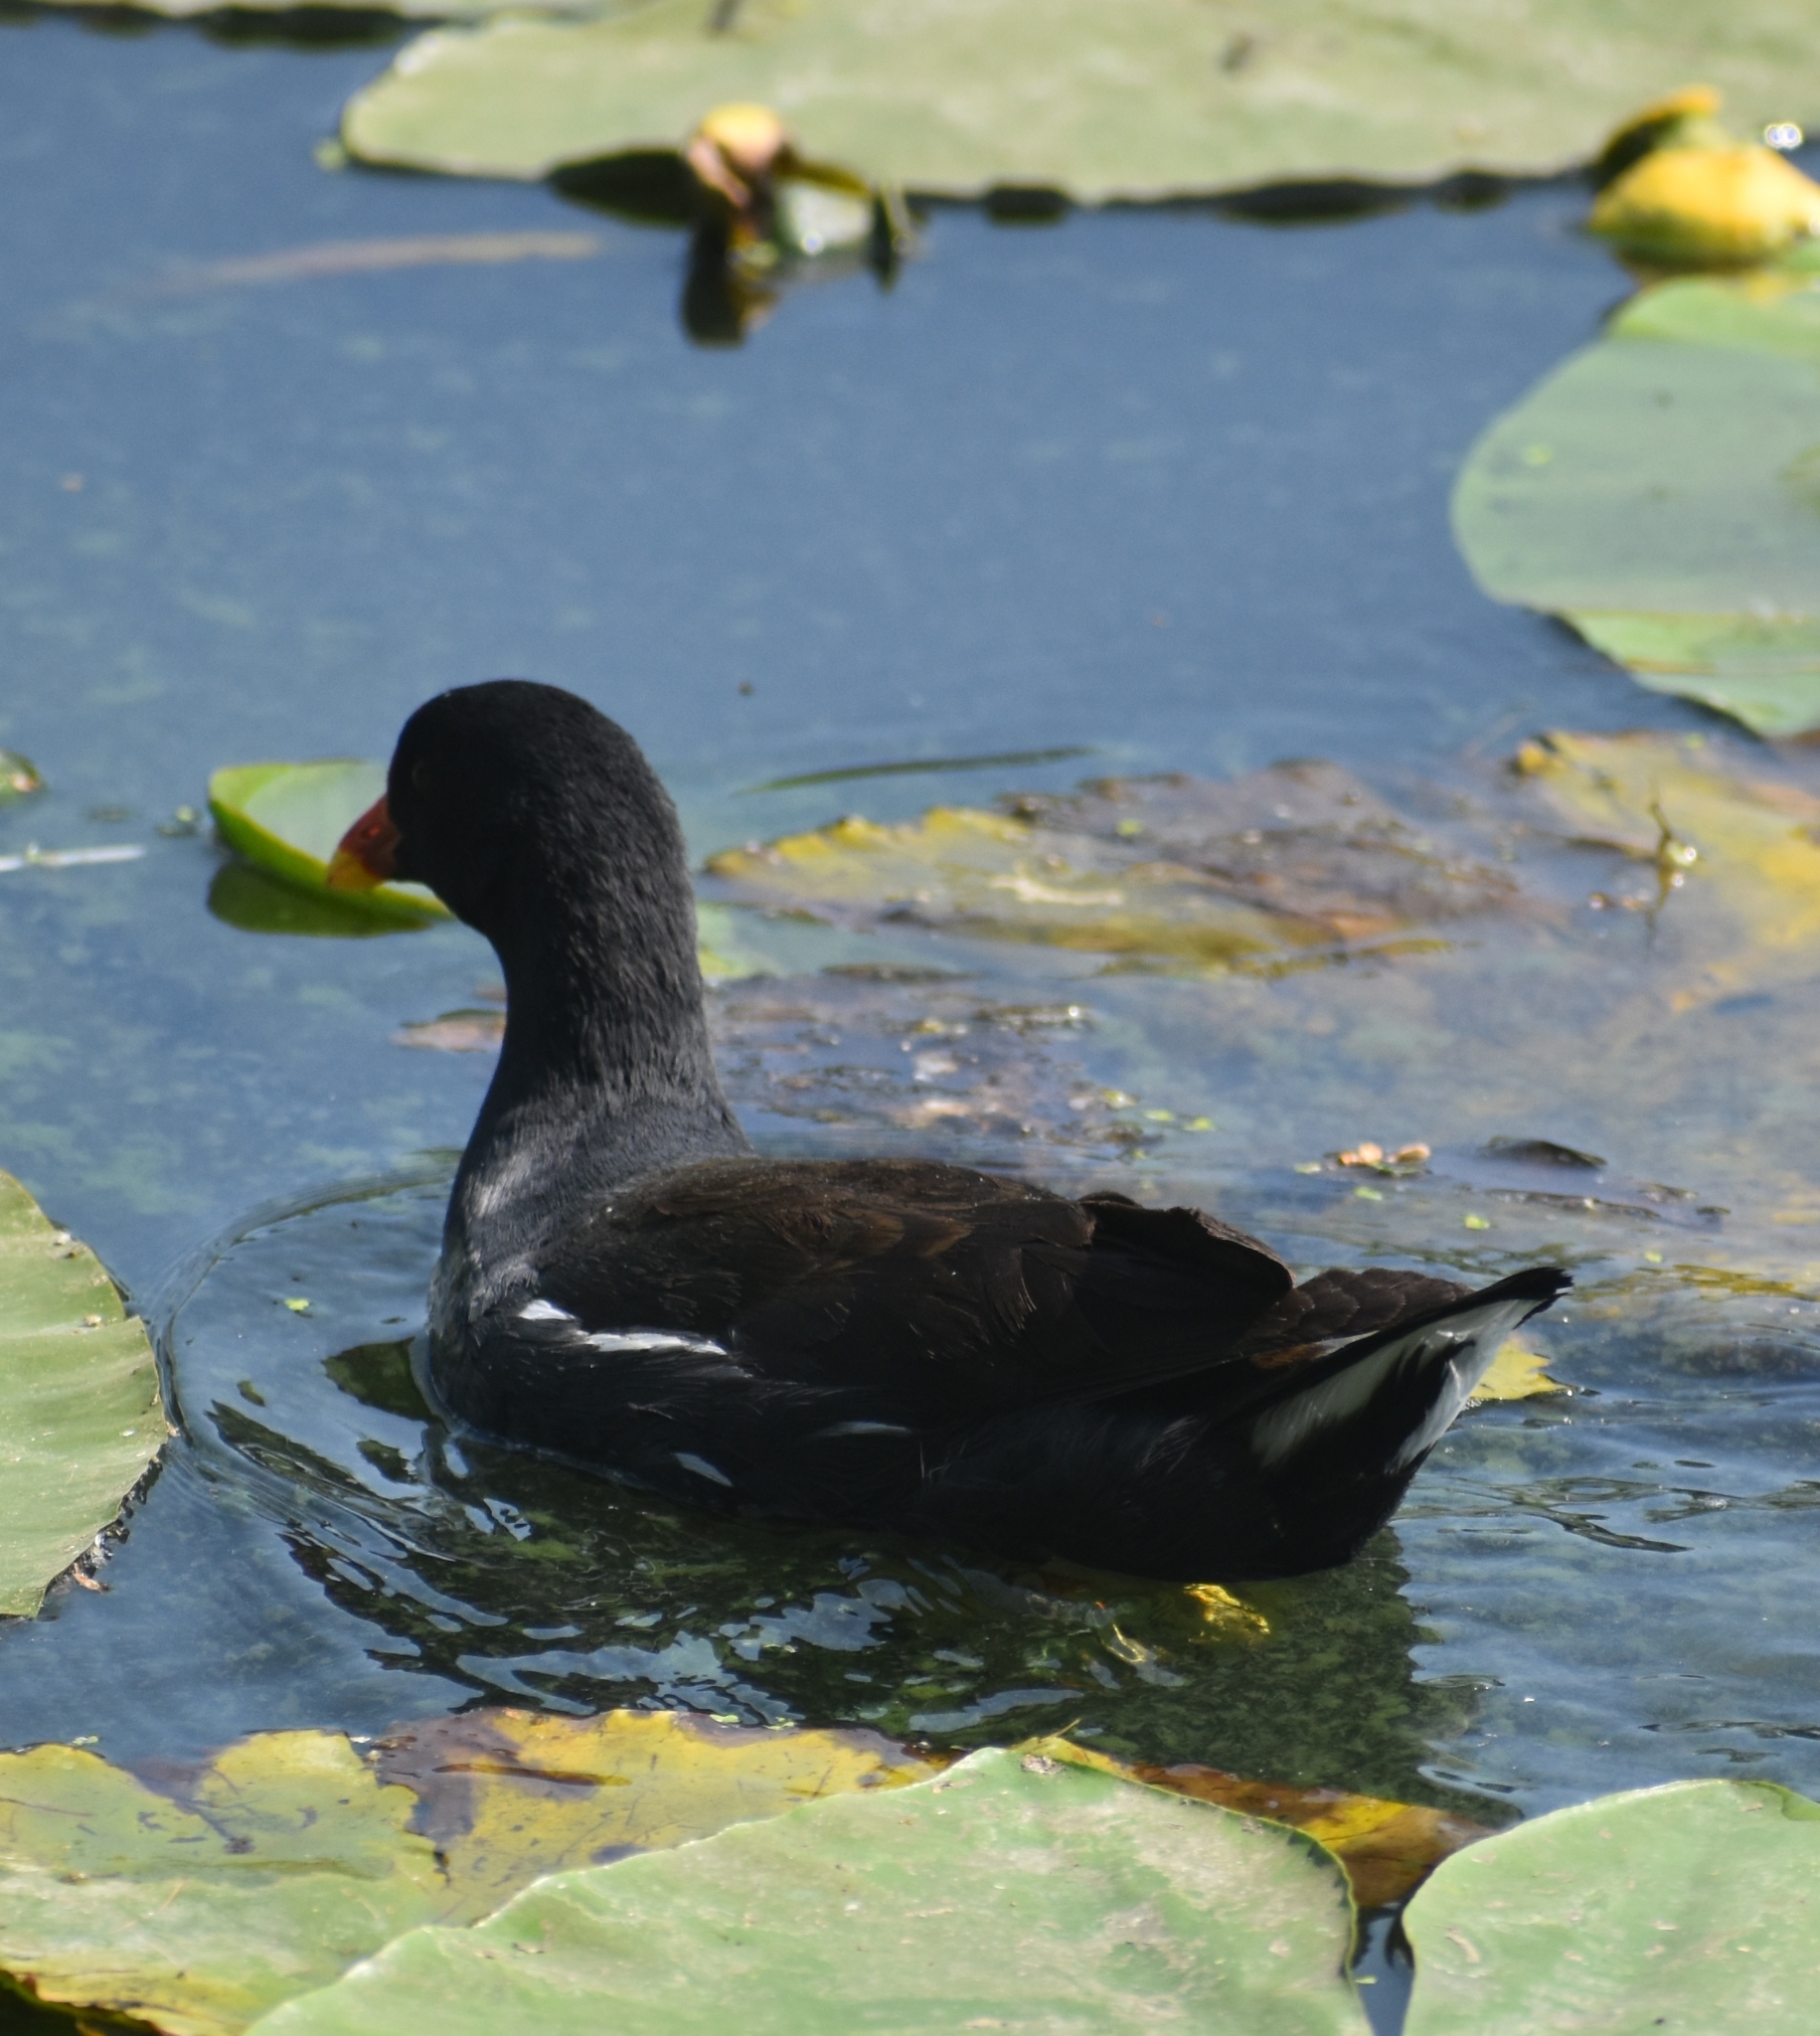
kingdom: Animalia
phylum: Chordata
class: Aves
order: Gruiformes
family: Rallidae
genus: Gallinula
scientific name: Gallinula chloropus
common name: Common moorhen
